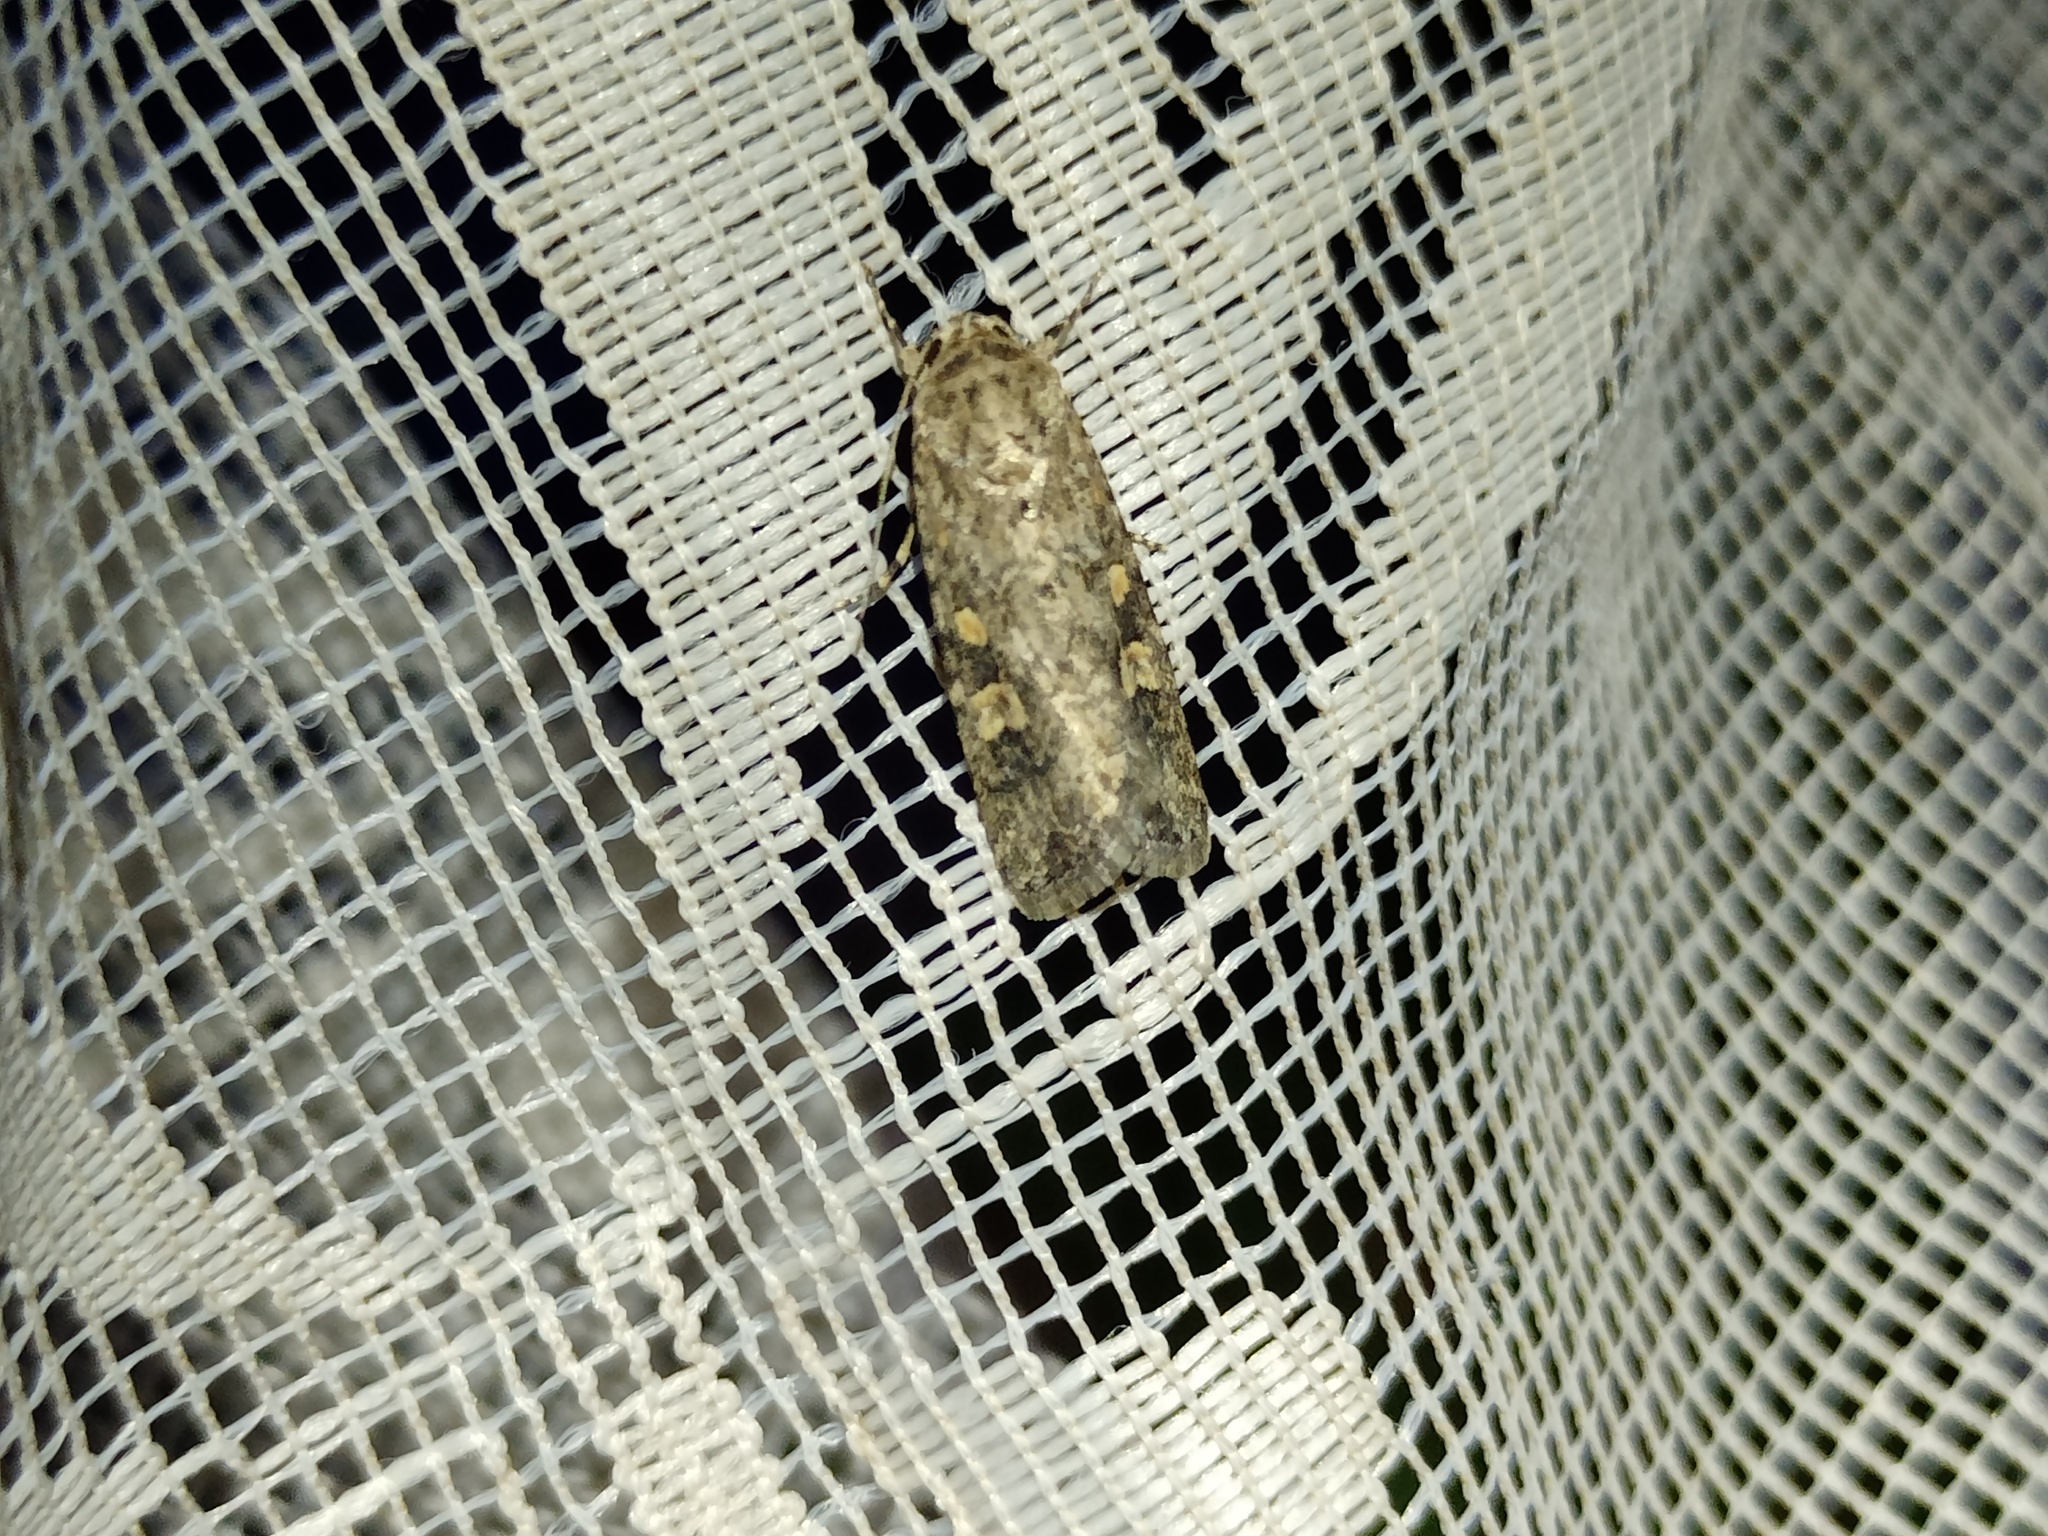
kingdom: Animalia
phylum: Arthropoda
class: Insecta
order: Lepidoptera
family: Noctuidae
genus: Spodoptera
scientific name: Spodoptera exigua
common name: Beet armyworm
